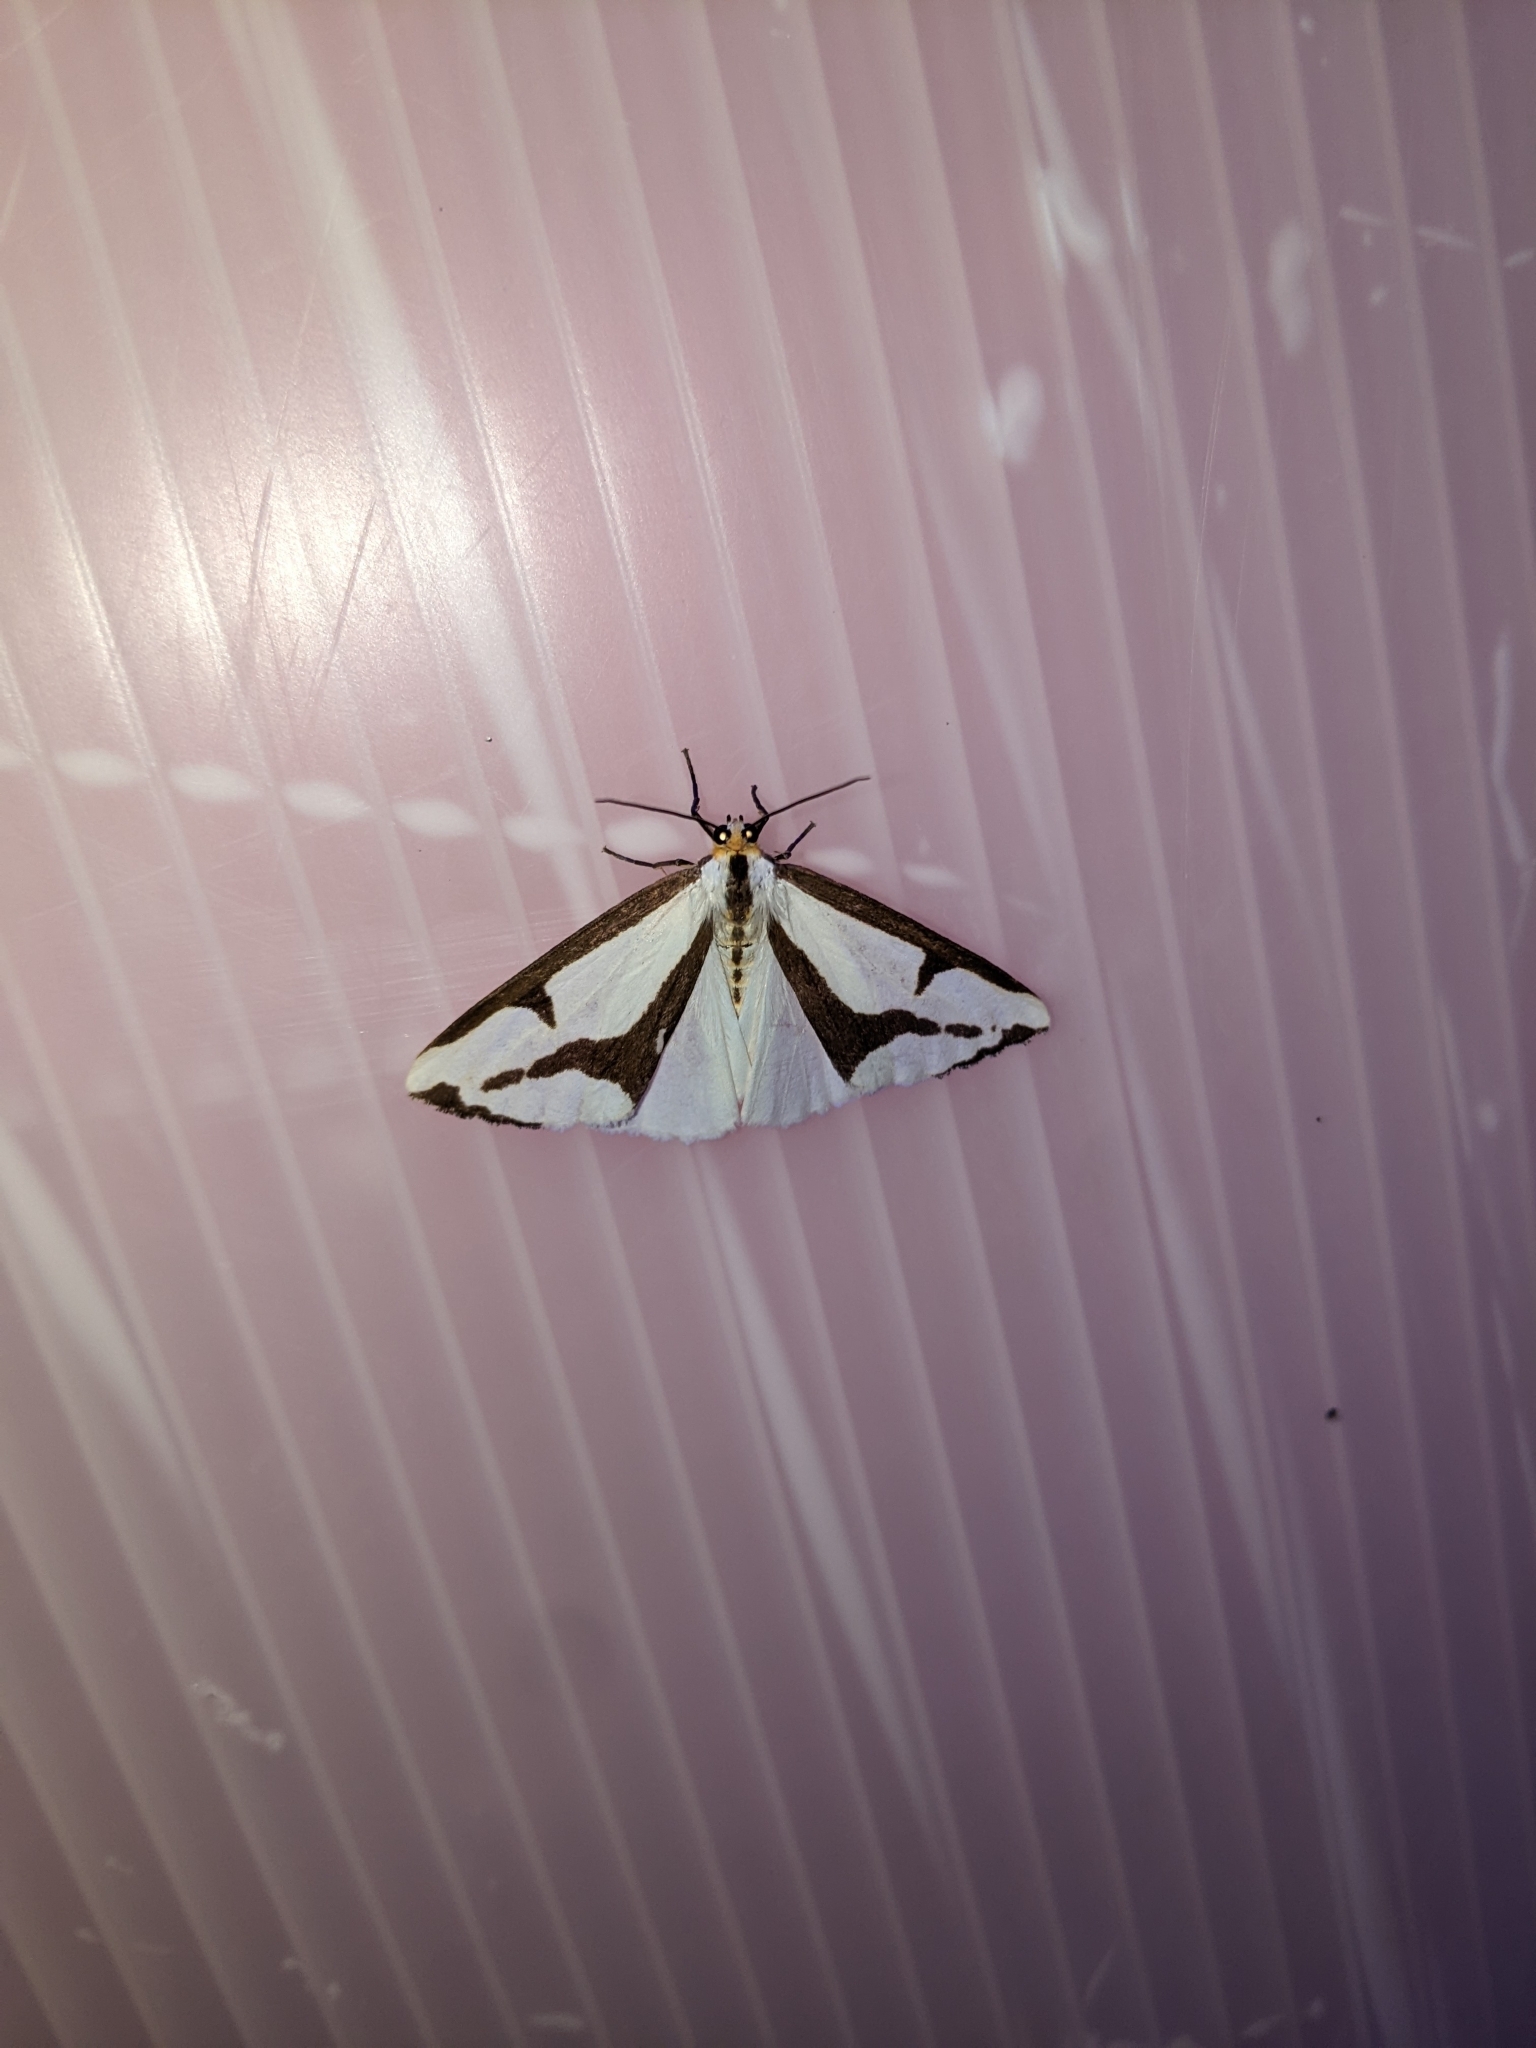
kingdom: Animalia
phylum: Arthropoda
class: Insecta
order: Lepidoptera
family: Erebidae
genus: Haploa
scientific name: Haploa lecontei
